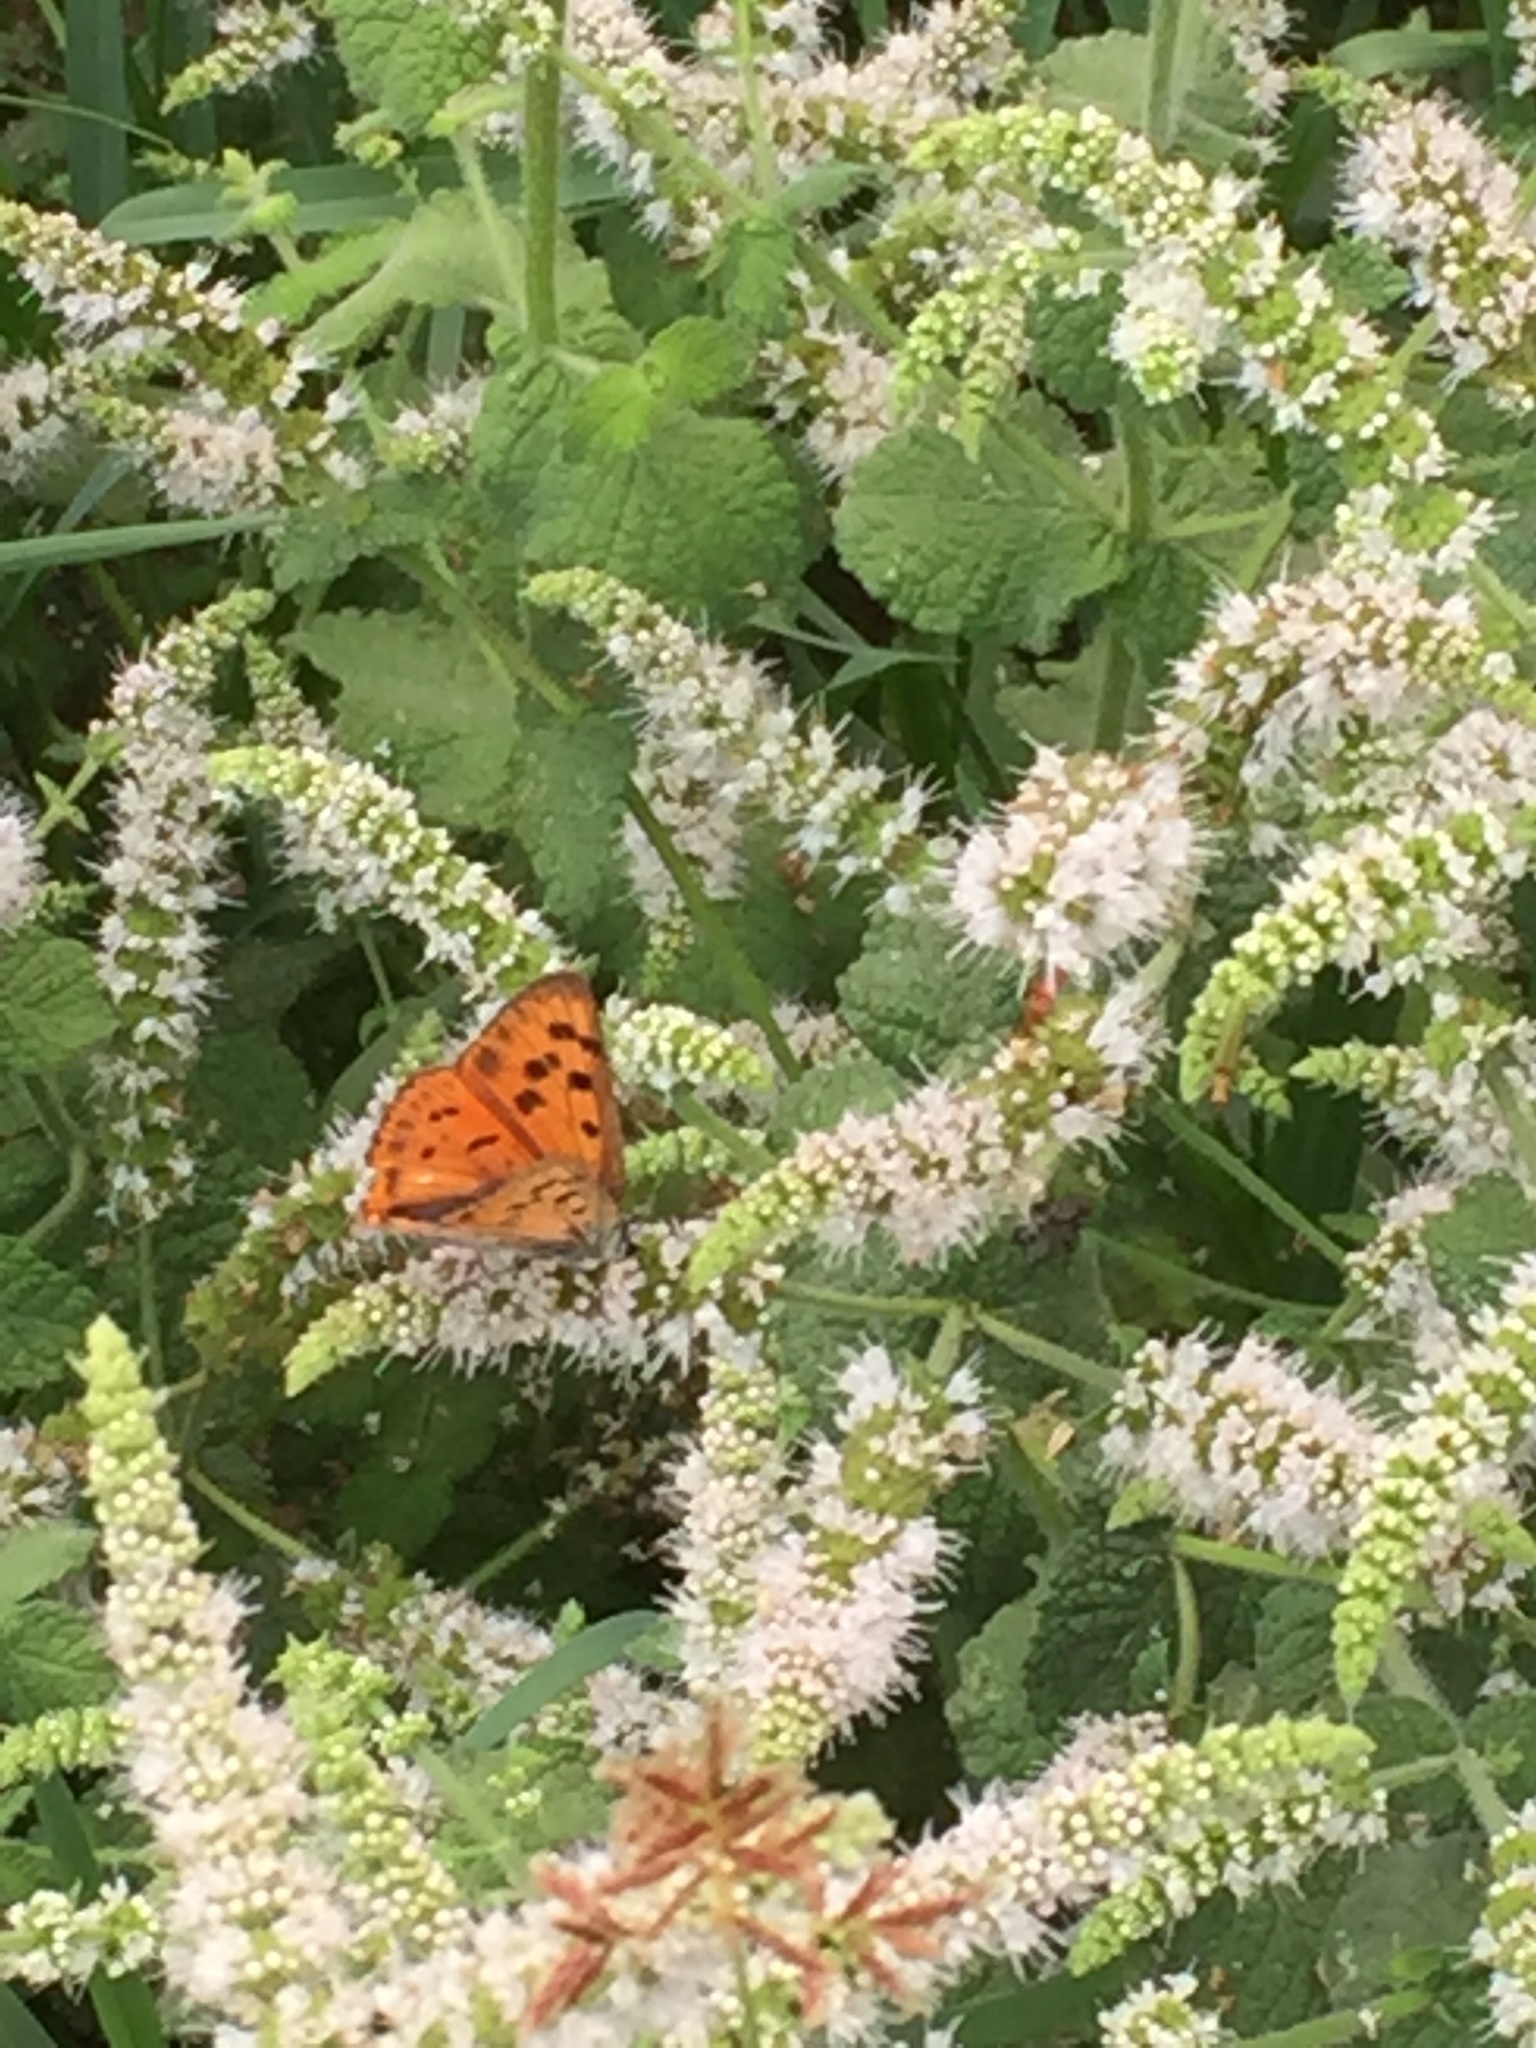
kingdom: Animalia
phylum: Arthropoda
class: Insecta
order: Lepidoptera
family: Lycaenidae
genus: Lycaena
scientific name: Lycaena alciphron
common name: Purple-shot copper
